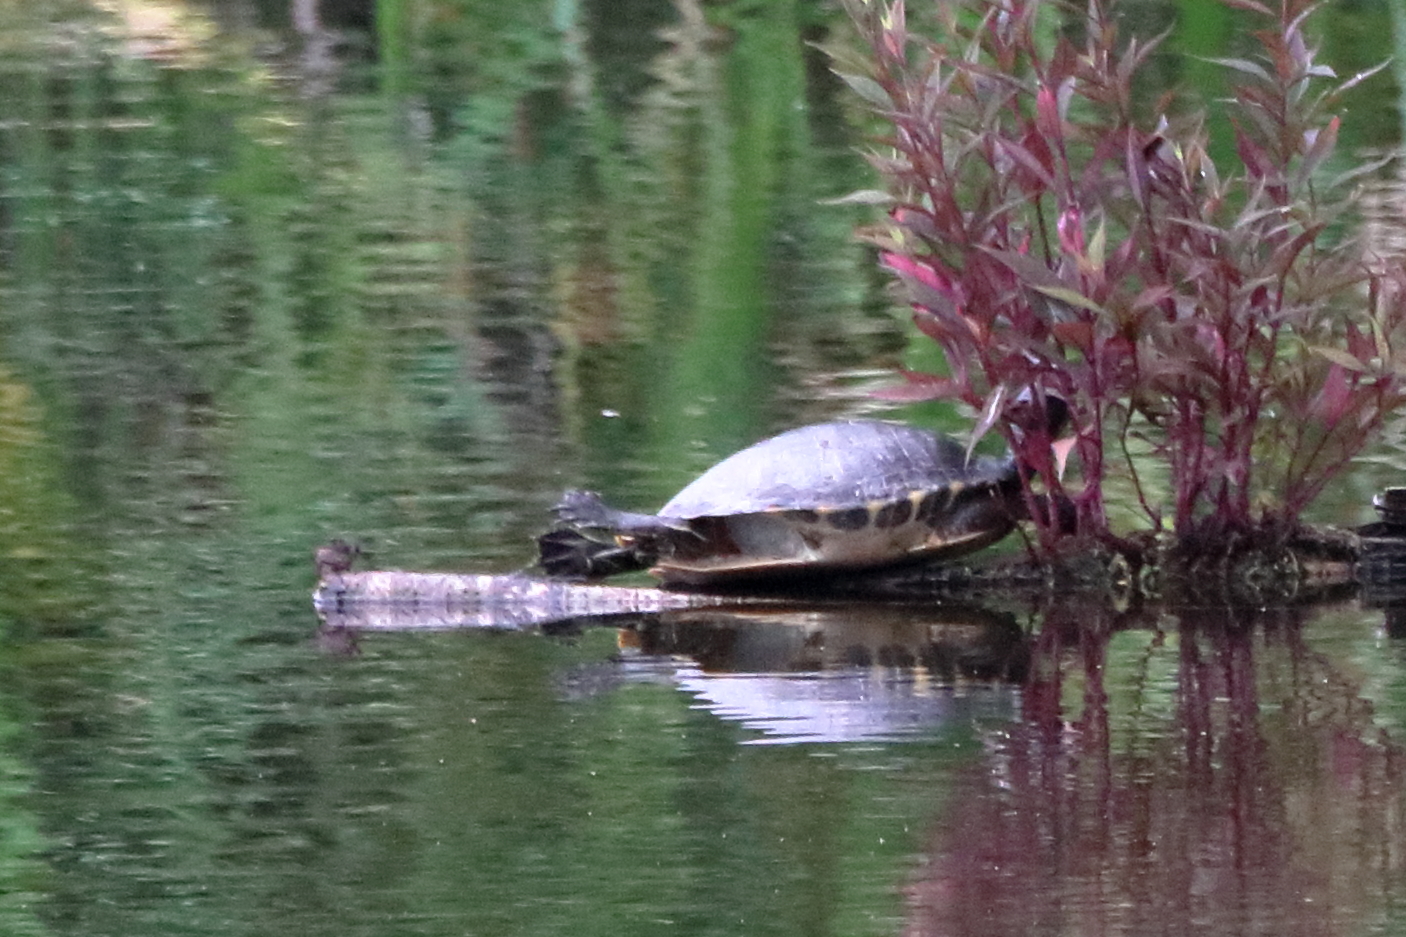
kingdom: Animalia
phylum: Chordata
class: Testudines
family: Emydidae
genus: Pseudemys
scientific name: Pseudemys concinna
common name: Eastern river cooter
